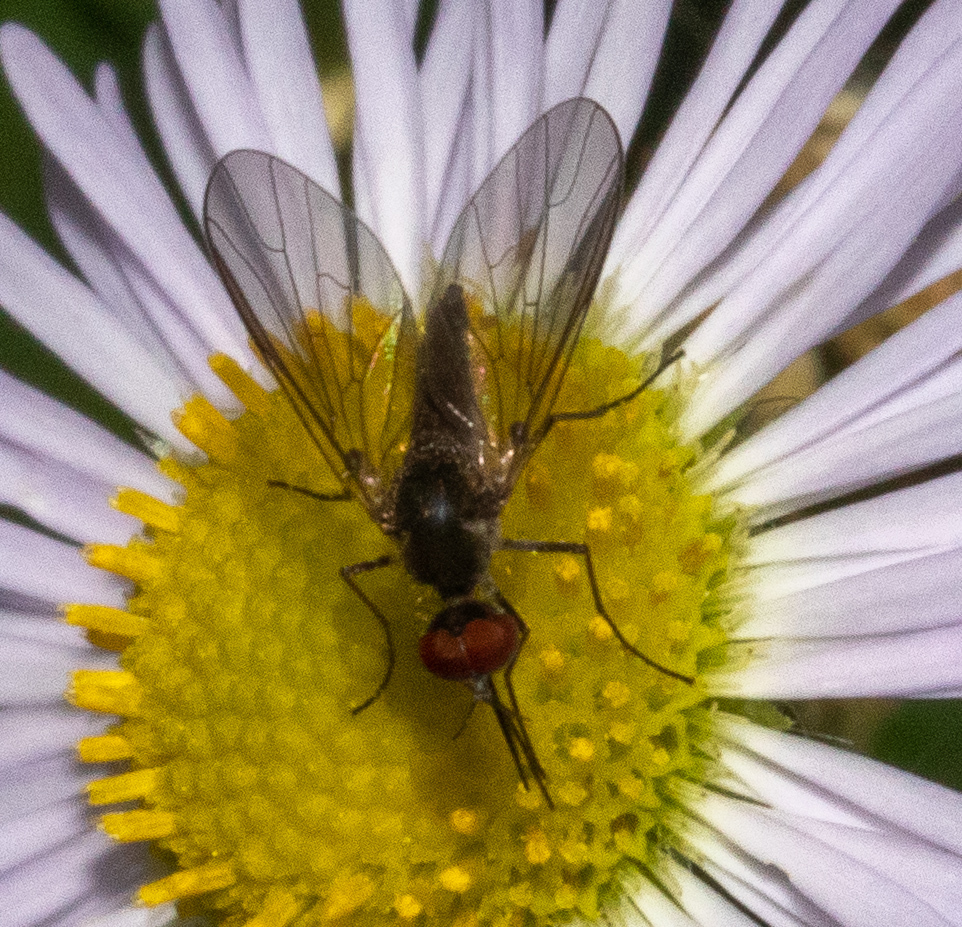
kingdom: Animalia
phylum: Arthropoda
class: Insecta
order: Diptera
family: Bombyliidae
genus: Geron
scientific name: Geron calvus
